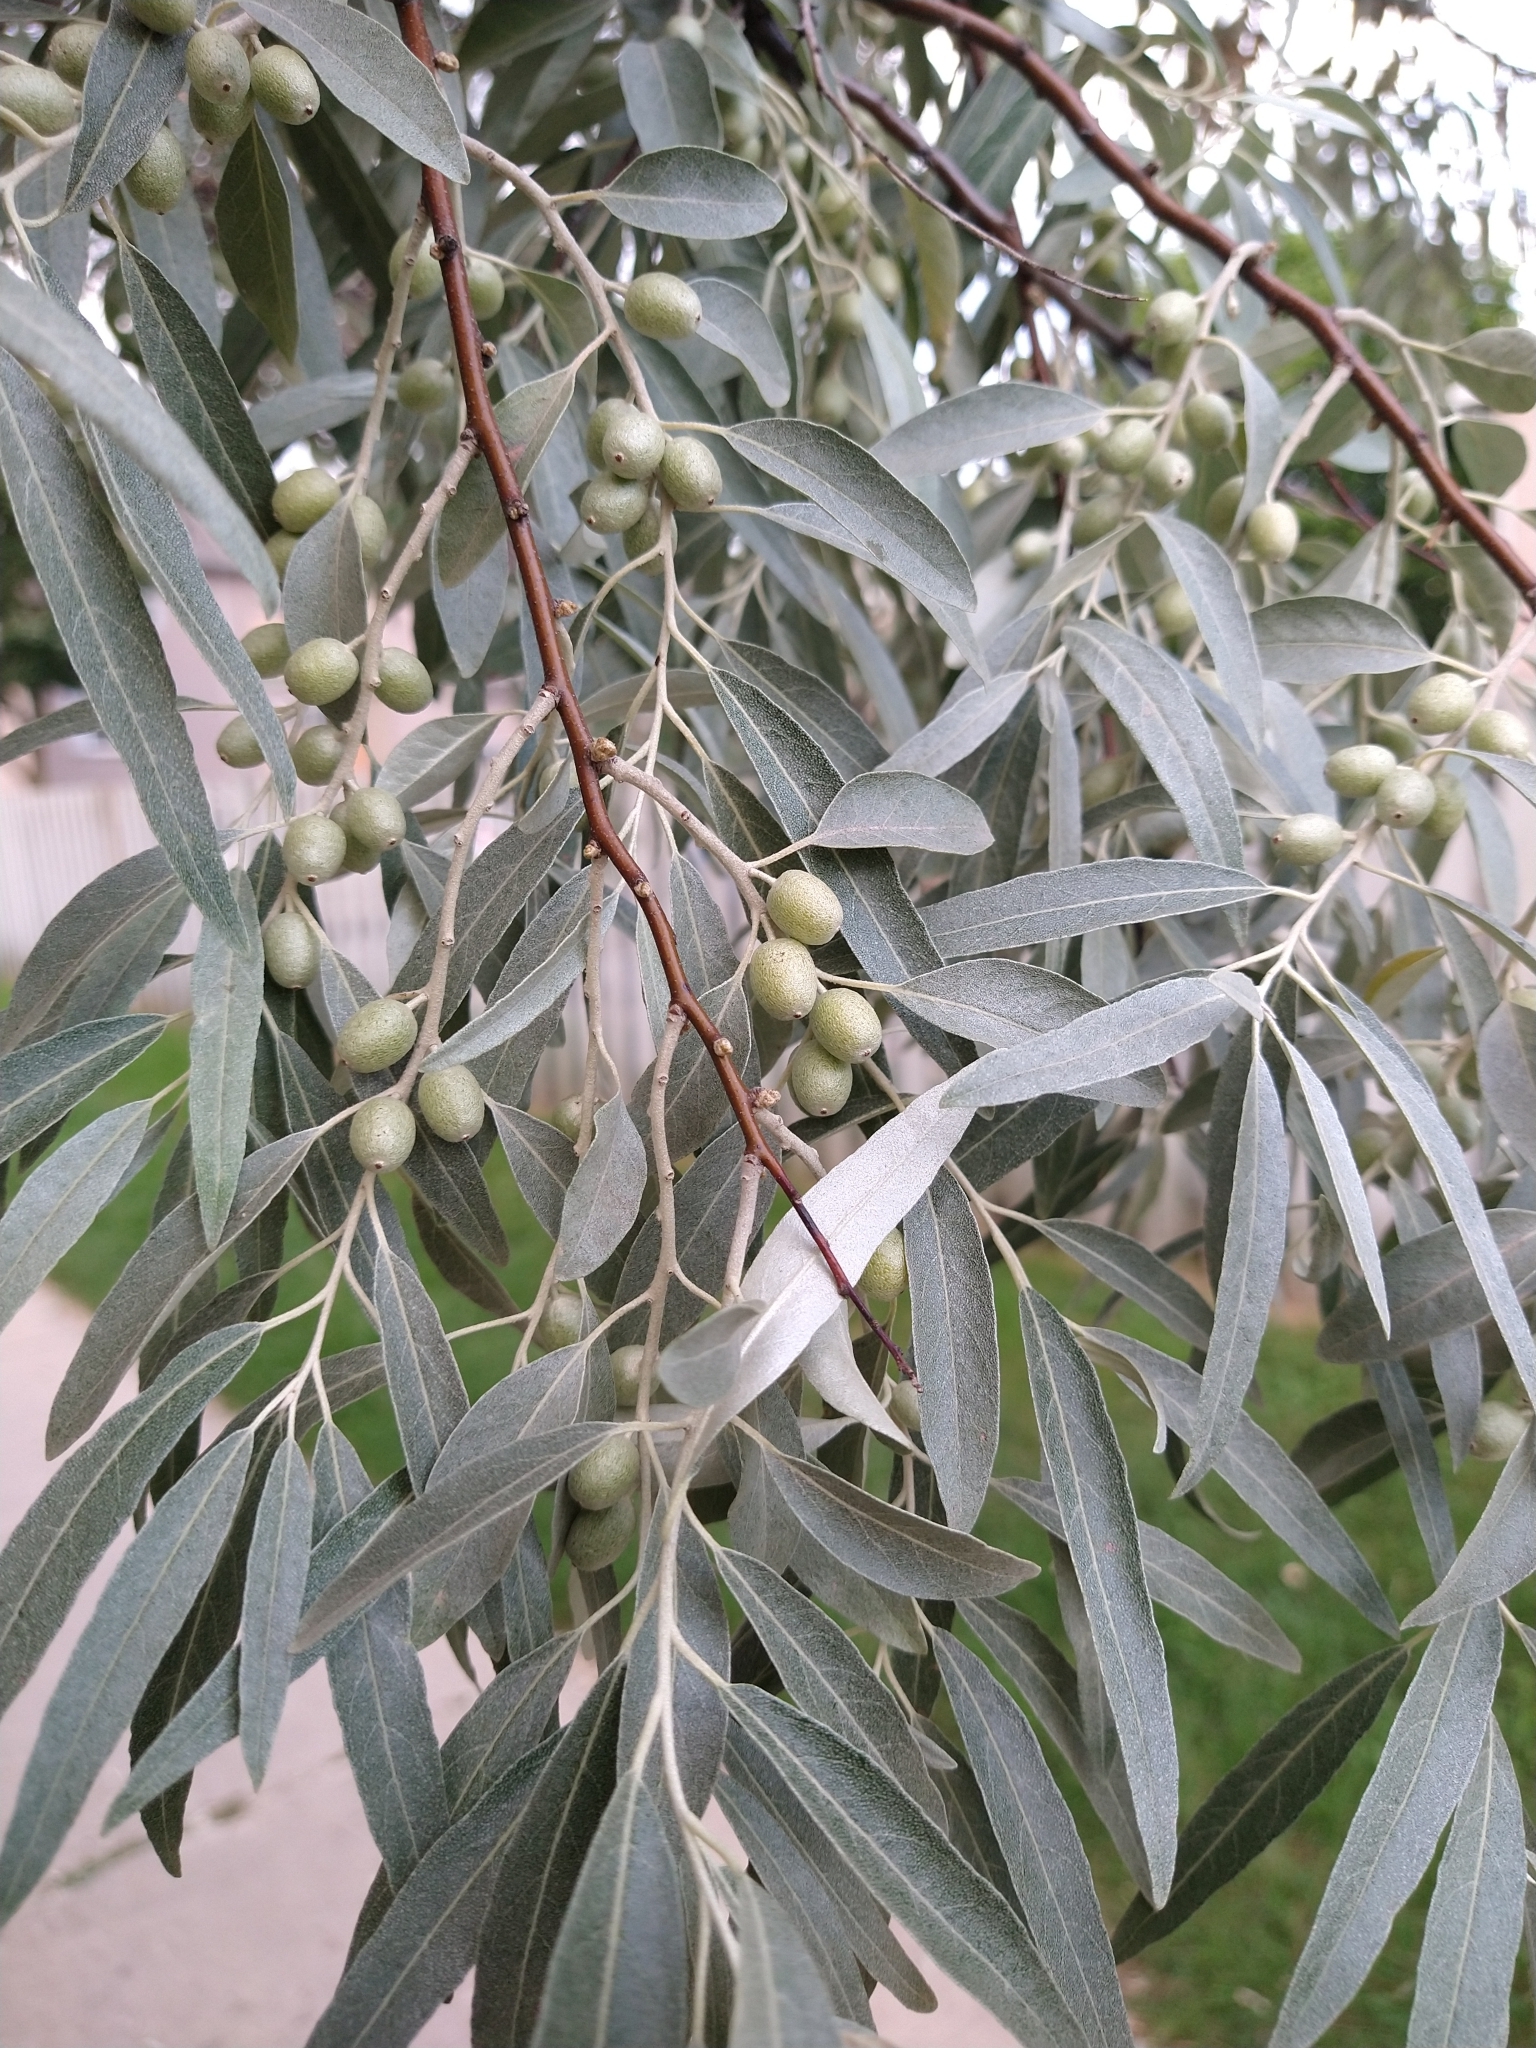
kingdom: Plantae
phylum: Tracheophyta
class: Magnoliopsida
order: Rosales
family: Elaeagnaceae
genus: Elaeagnus
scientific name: Elaeagnus angustifolia
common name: Russian olive
